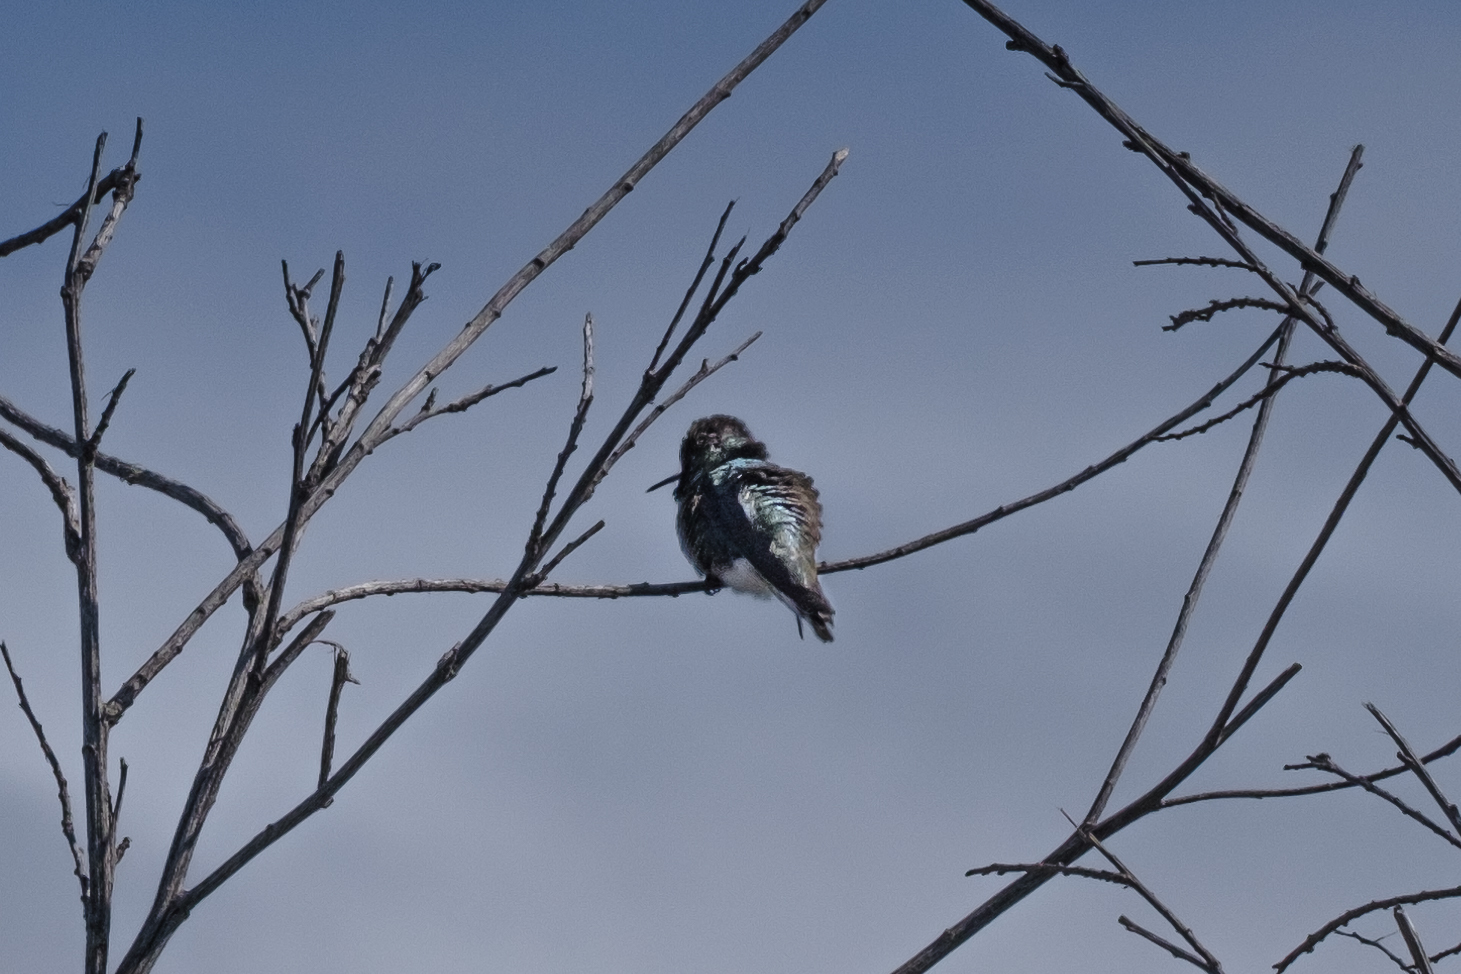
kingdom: Animalia
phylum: Chordata
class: Aves
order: Apodiformes
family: Trochilidae
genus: Calypte
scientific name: Calypte anna
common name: Anna's hummingbird
